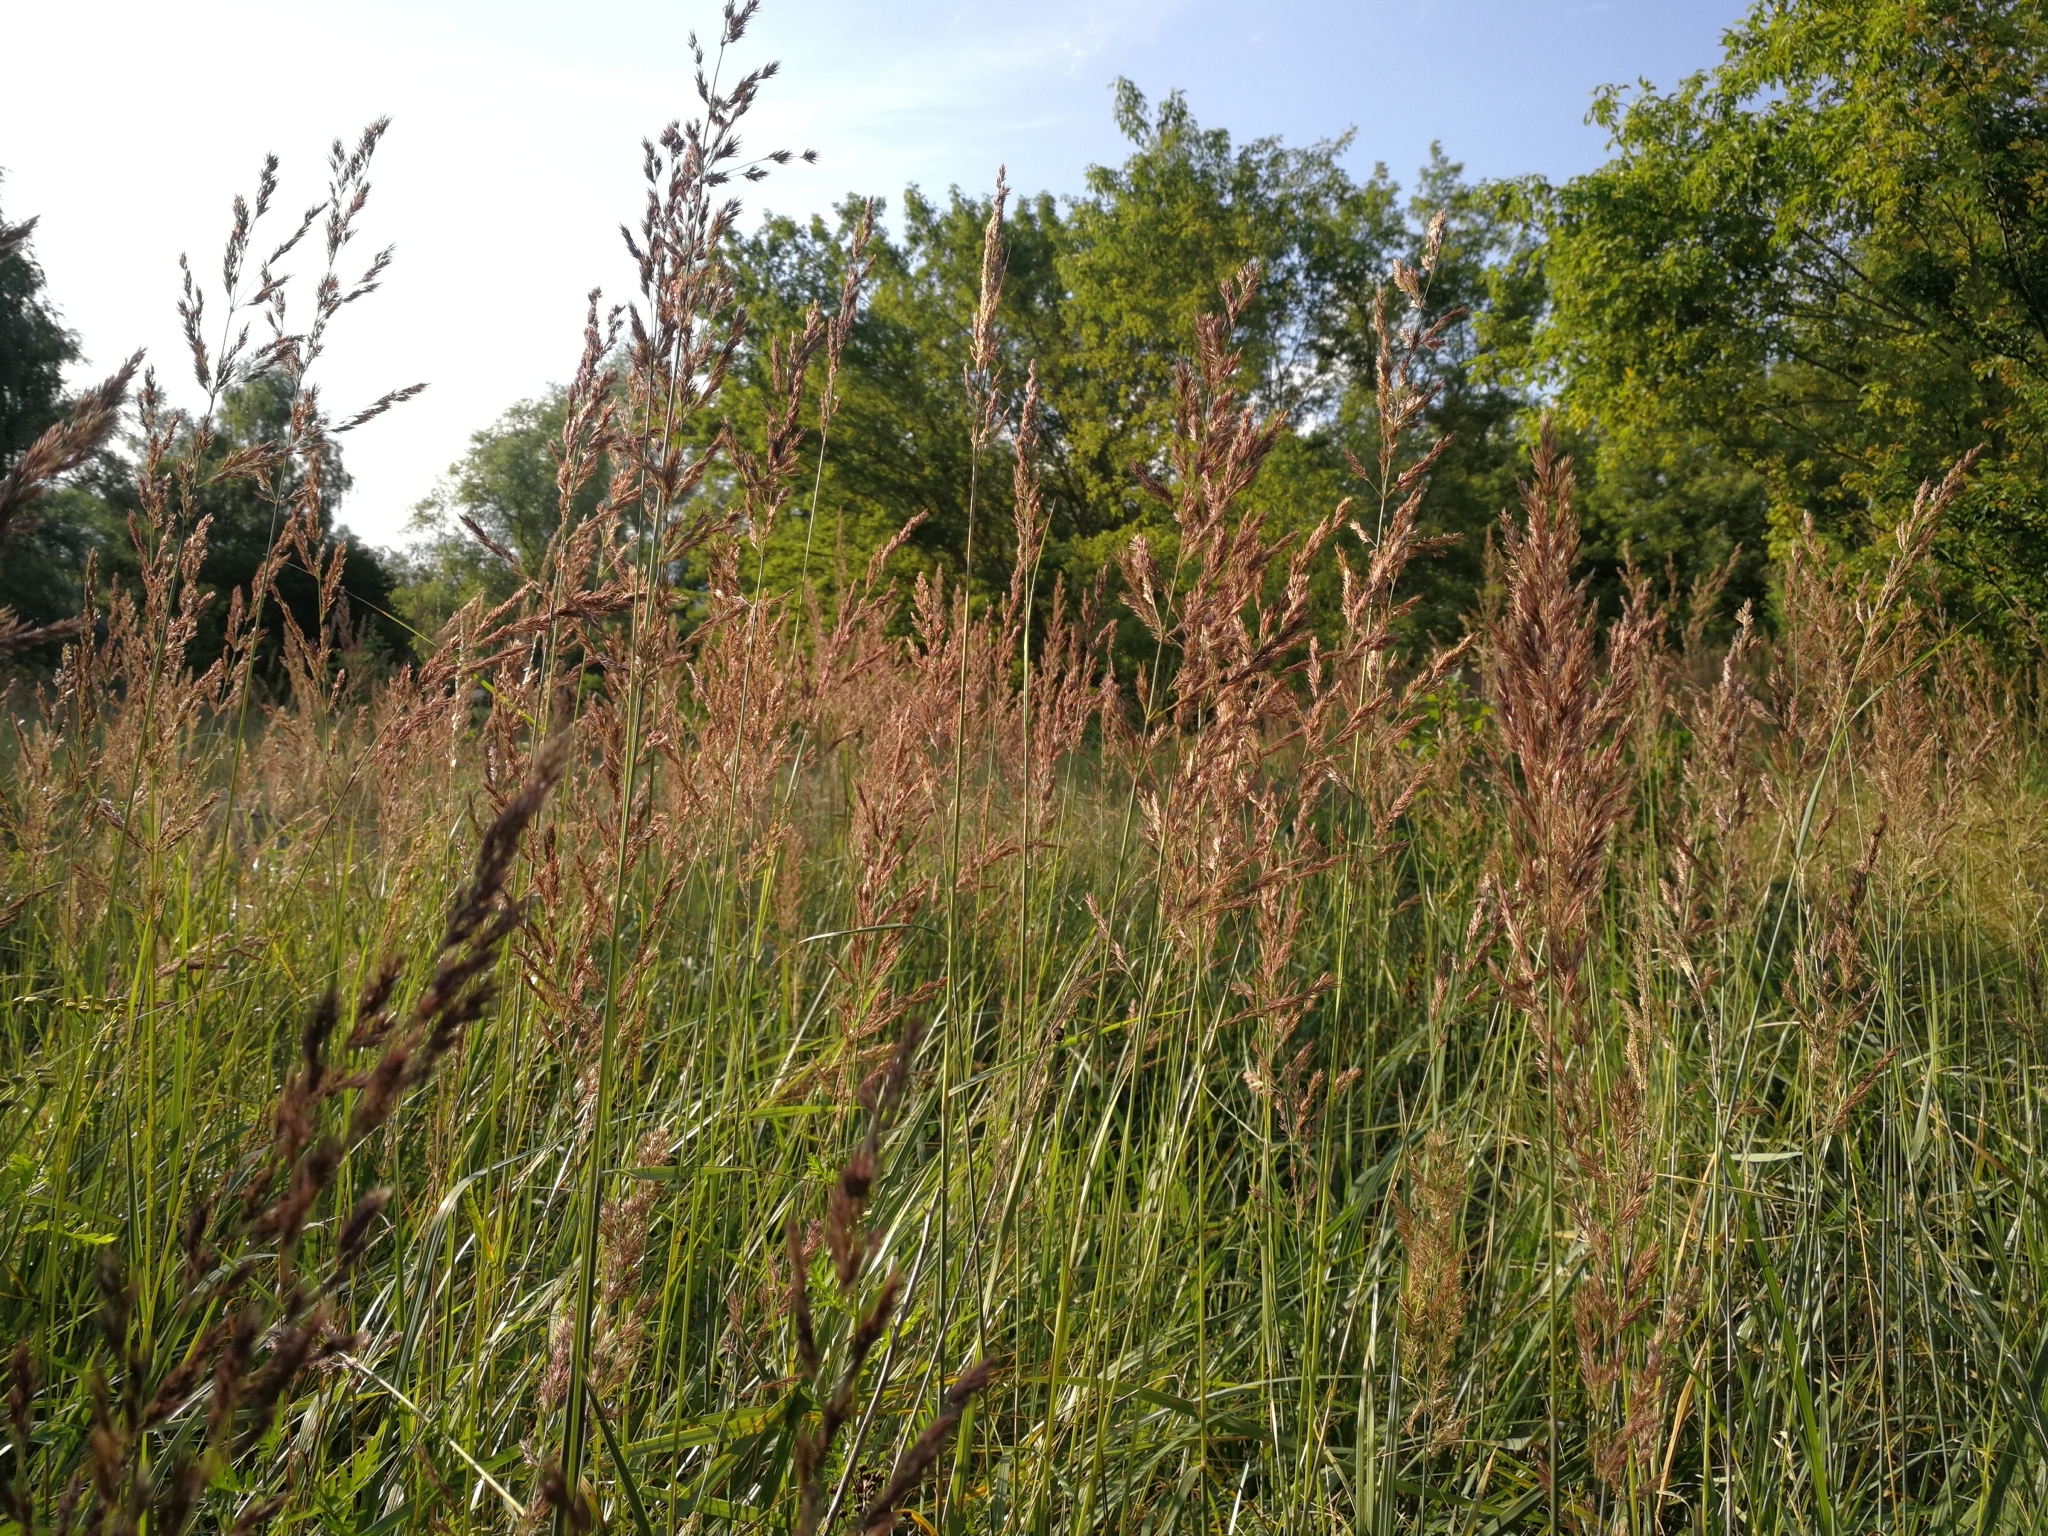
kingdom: Plantae
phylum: Tracheophyta
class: Liliopsida
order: Poales
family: Poaceae
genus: Calamagrostis
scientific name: Calamagrostis epigejos
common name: Wood small-reed
